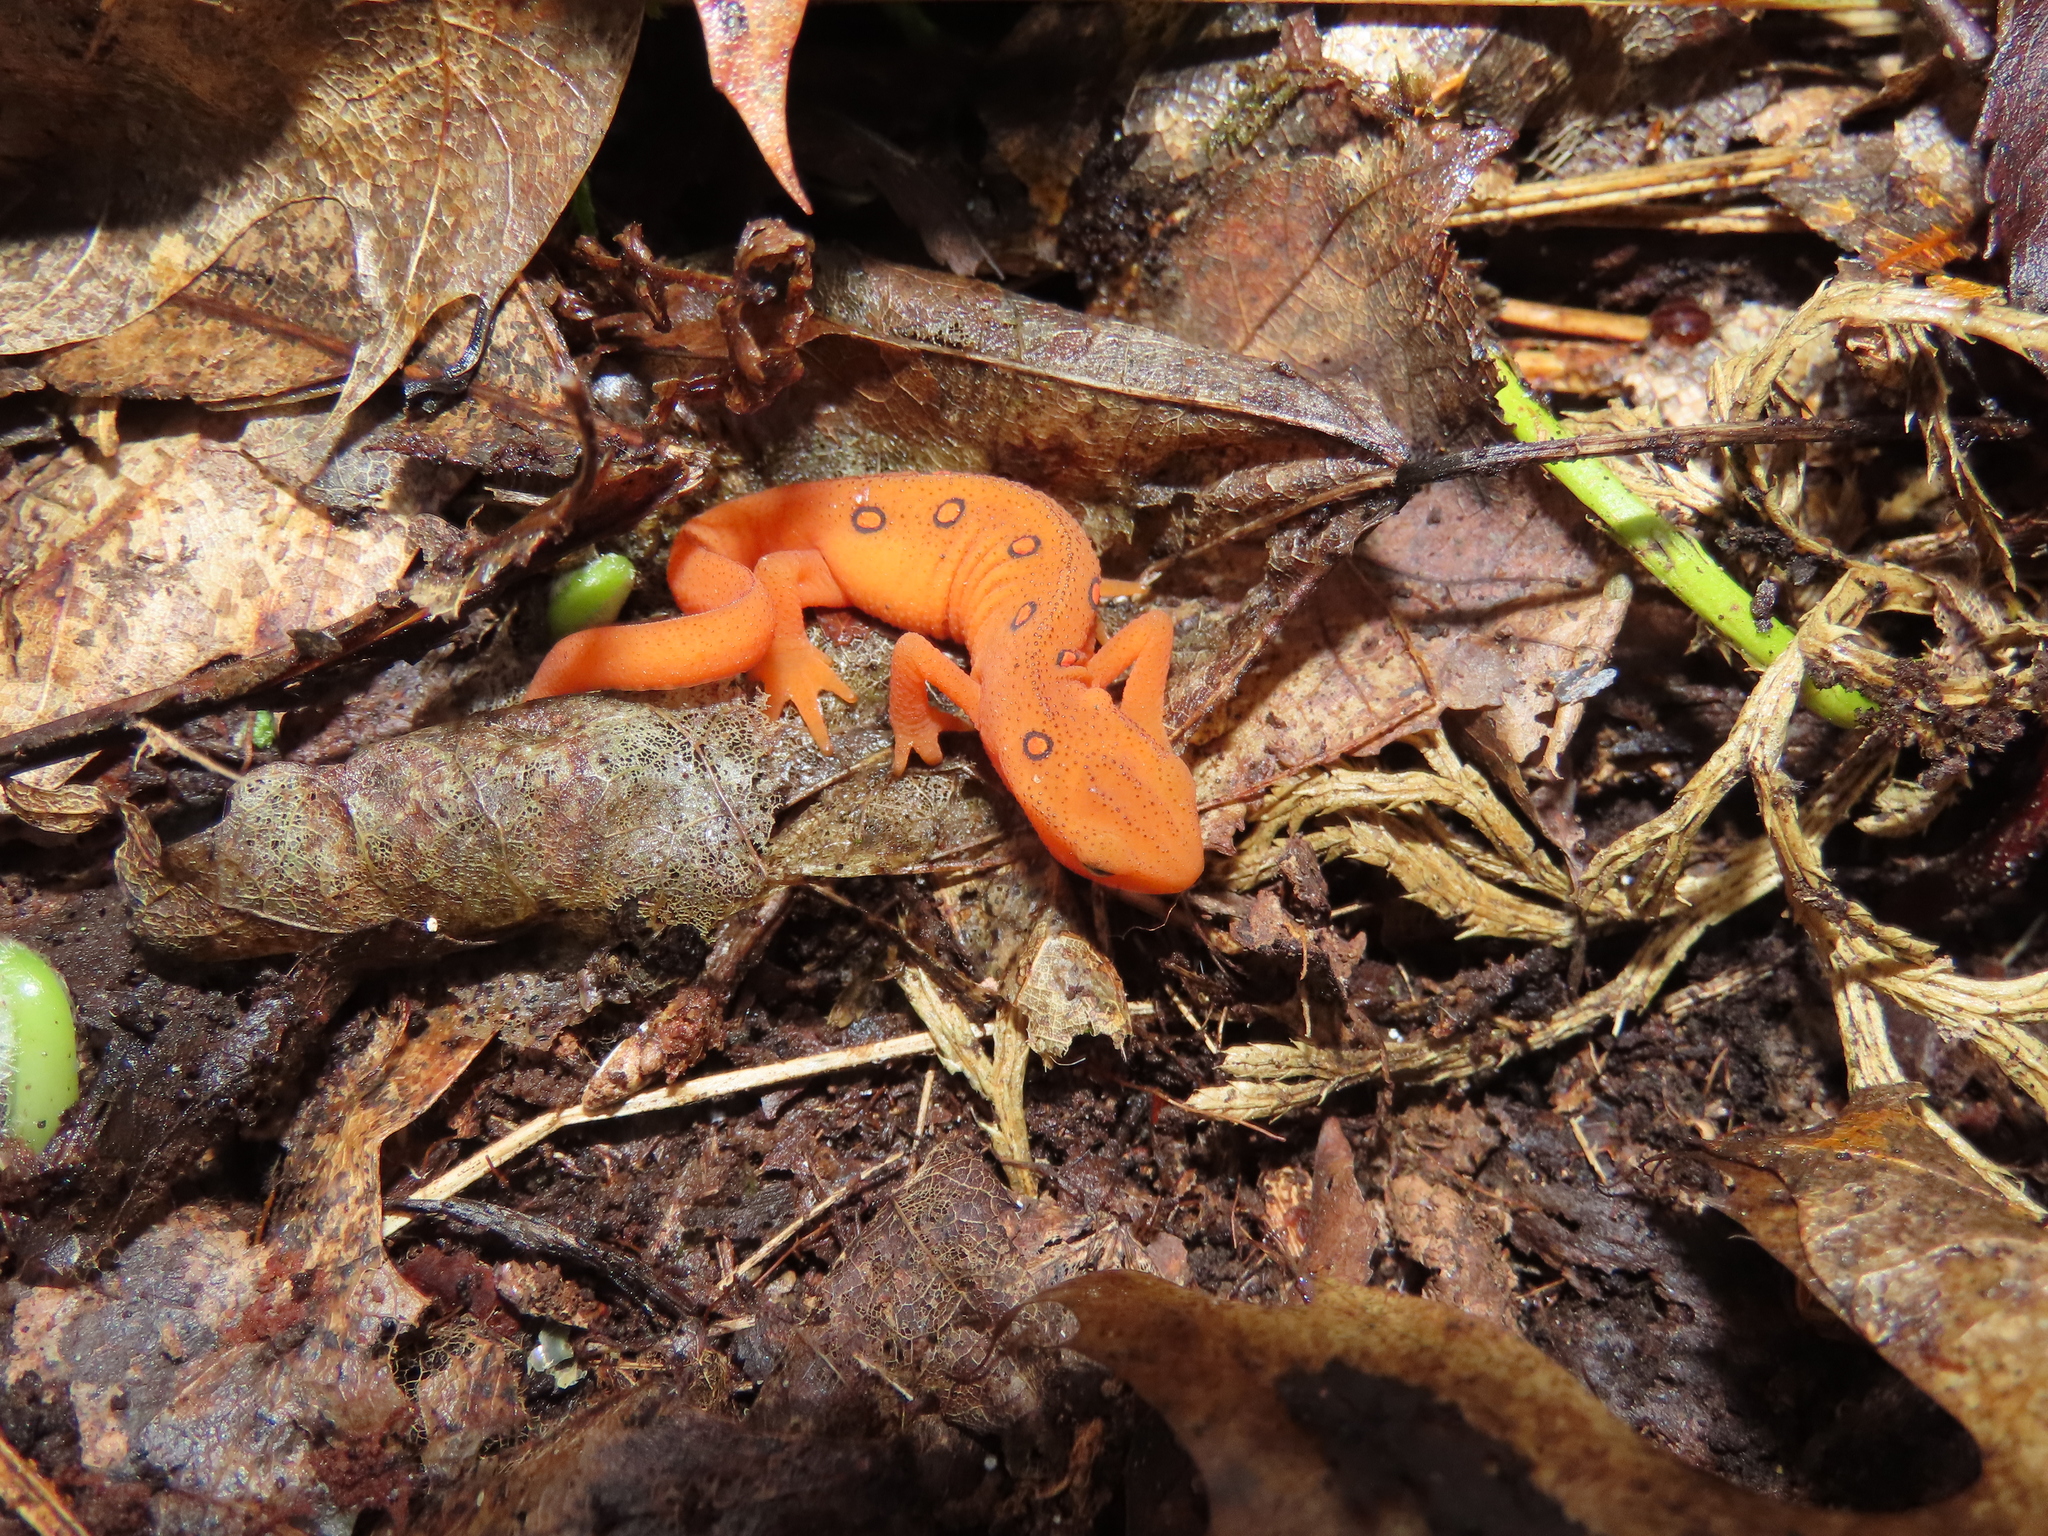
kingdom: Animalia
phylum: Chordata
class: Amphibia
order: Caudata
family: Salamandridae
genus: Notophthalmus
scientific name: Notophthalmus viridescens
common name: Eastern newt
